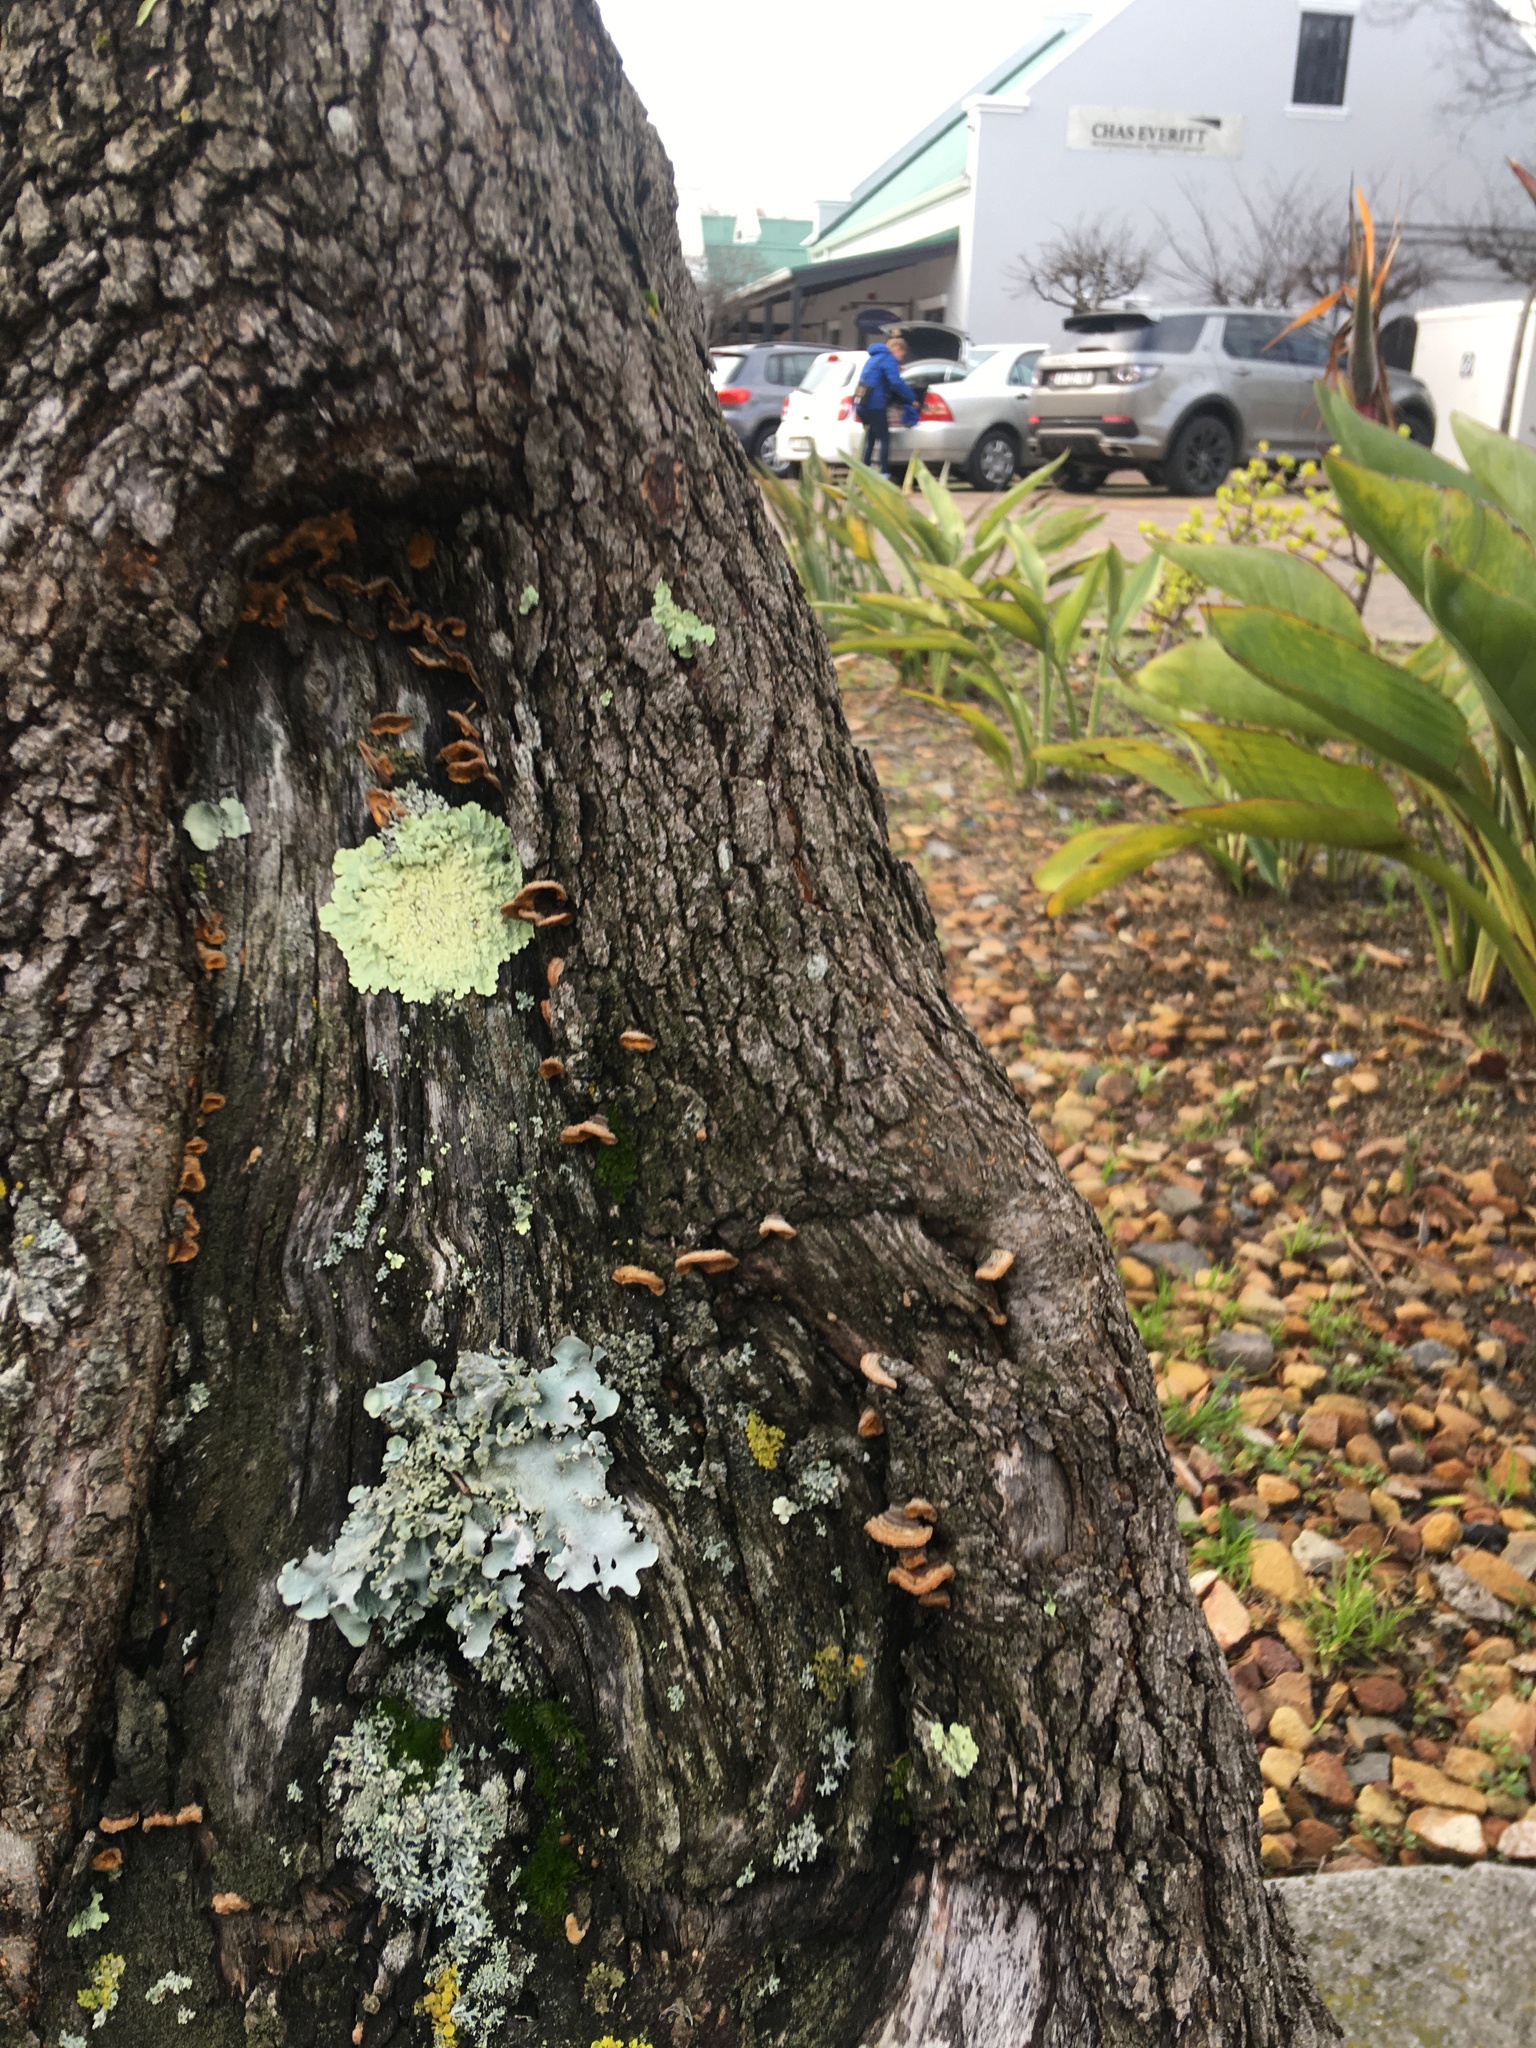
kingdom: Plantae
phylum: Bryophyta
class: Bryopsida
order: Pottiales
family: Pottiaceae
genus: Syntrichia
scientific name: Syntrichia laevipila
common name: Small hairy screw-moss
